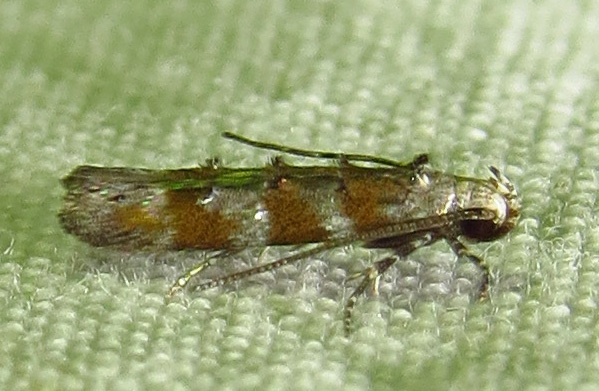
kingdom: Animalia
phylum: Arthropoda
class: Insecta
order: Lepidoptera
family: Gelechiidae
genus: Exoteleia
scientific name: Exoteleia pinifoliella
